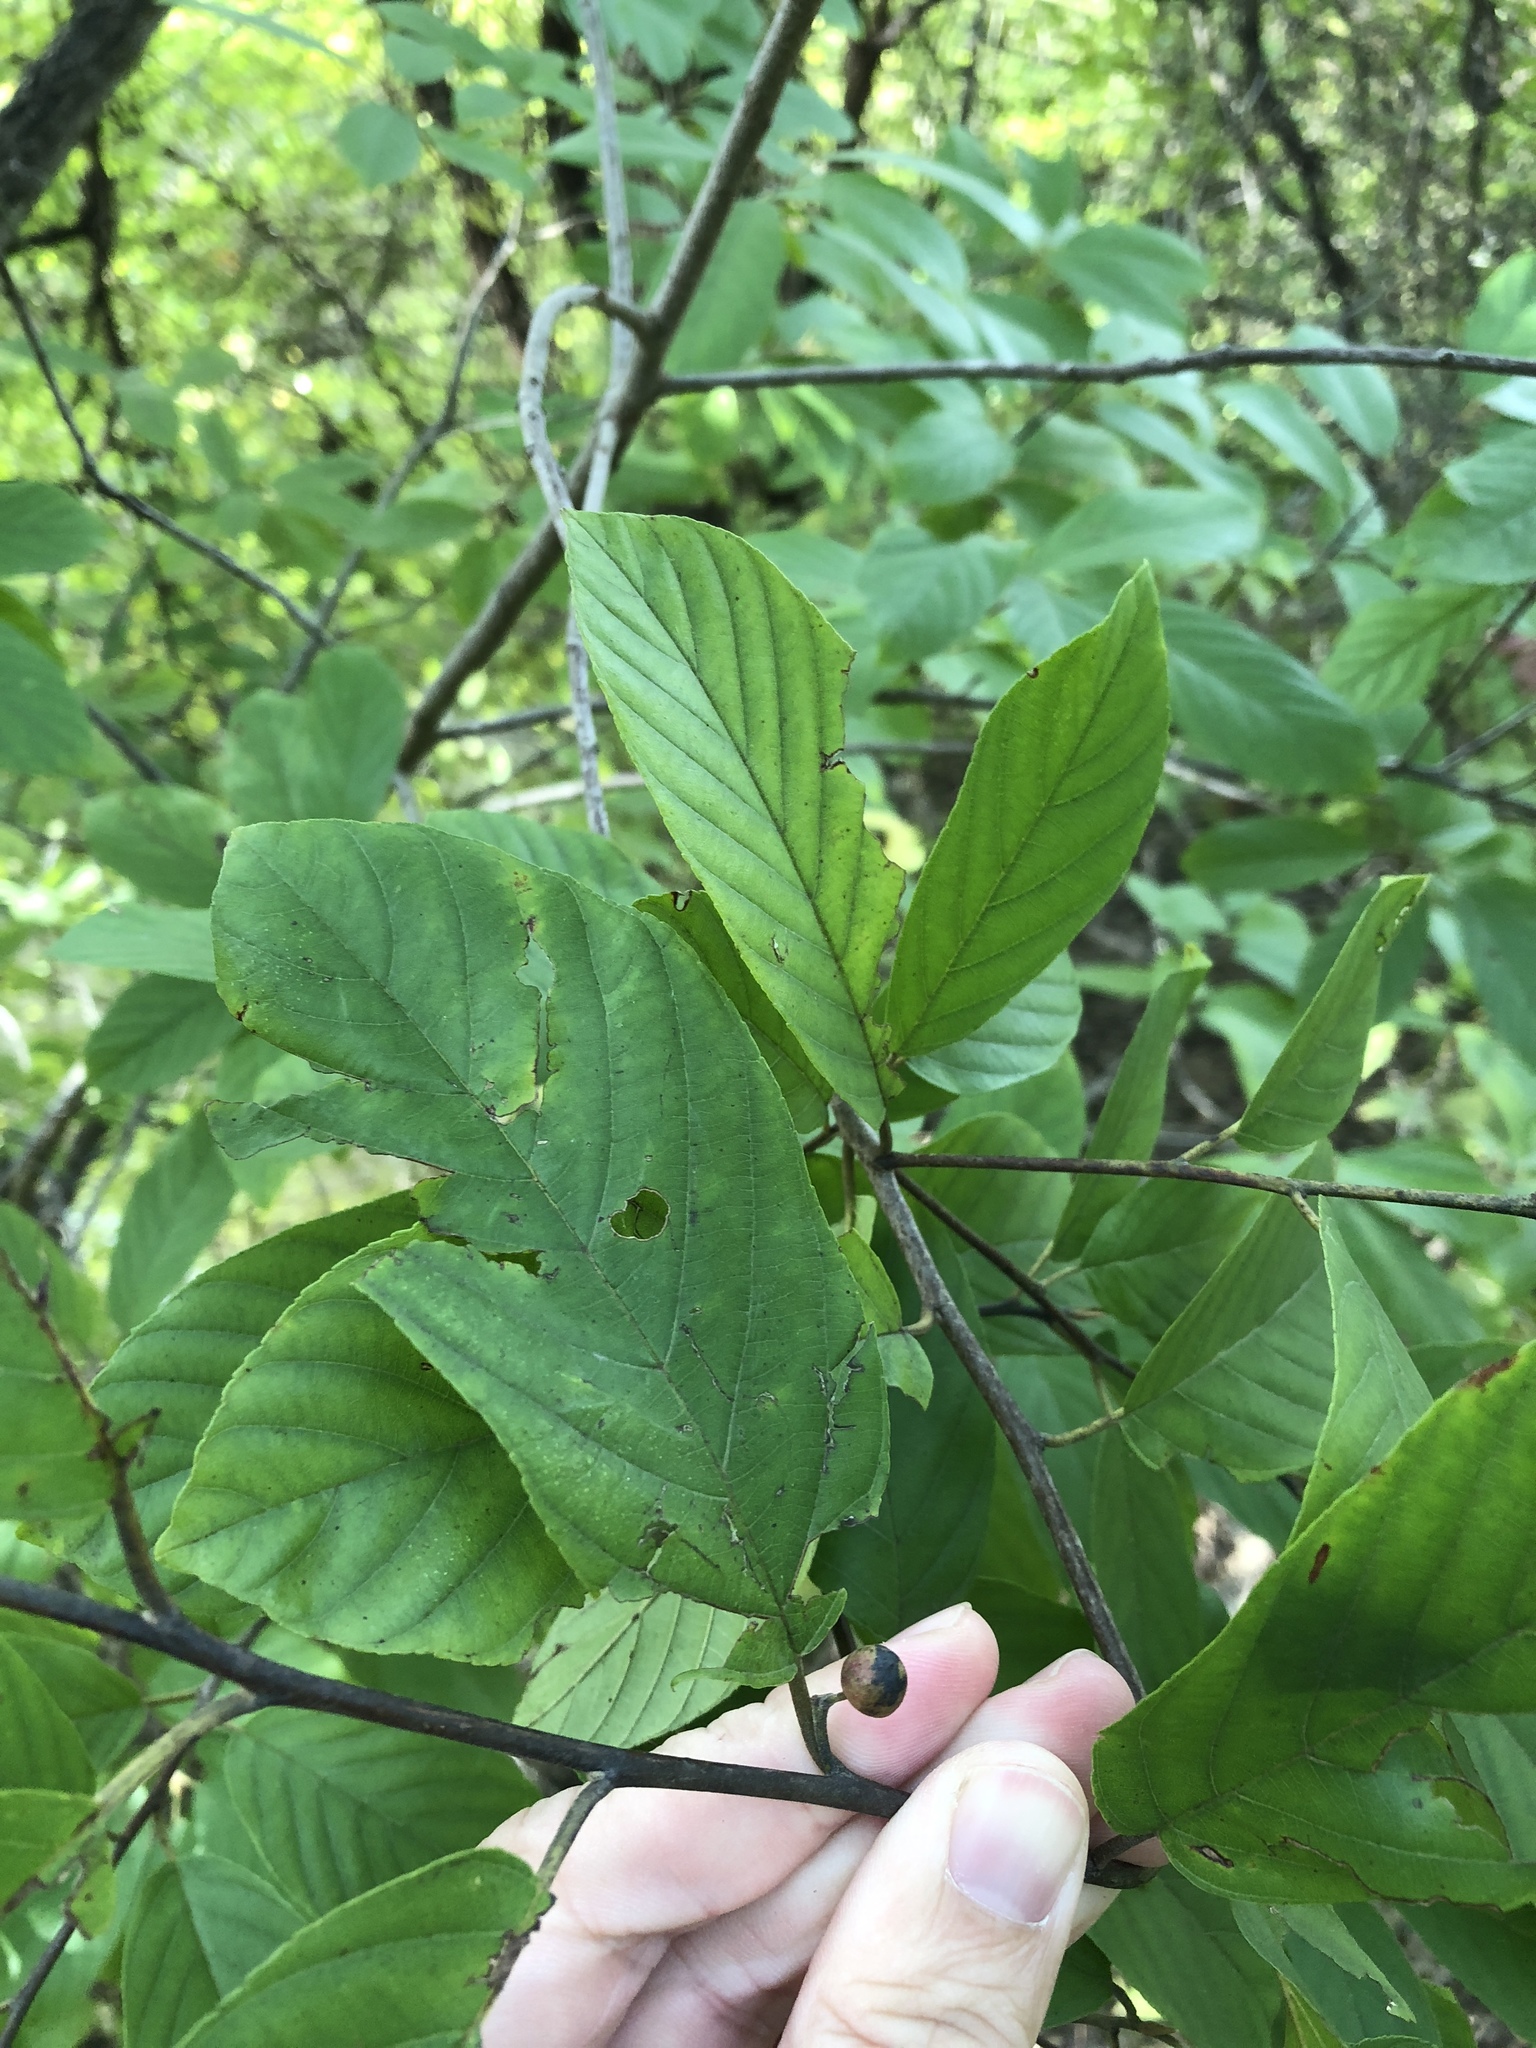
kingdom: Plantae
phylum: Tracheophyta
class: Magnoliopsida
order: Rosales
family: Rhamnaceae
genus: Frangula
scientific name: Frangula caroliniana
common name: Carolina buckthorn
